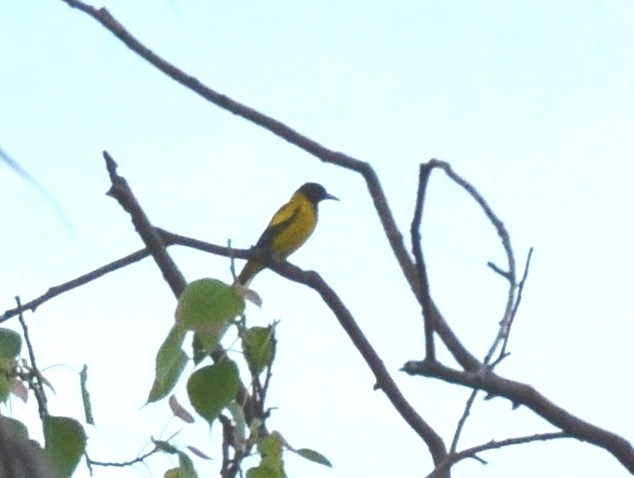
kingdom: Animalia
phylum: Chordata
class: Aves
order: Passeriformes
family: Oriolidae
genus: Oriolus
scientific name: Oriolus xanthornus
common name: Black-hooded oriole
